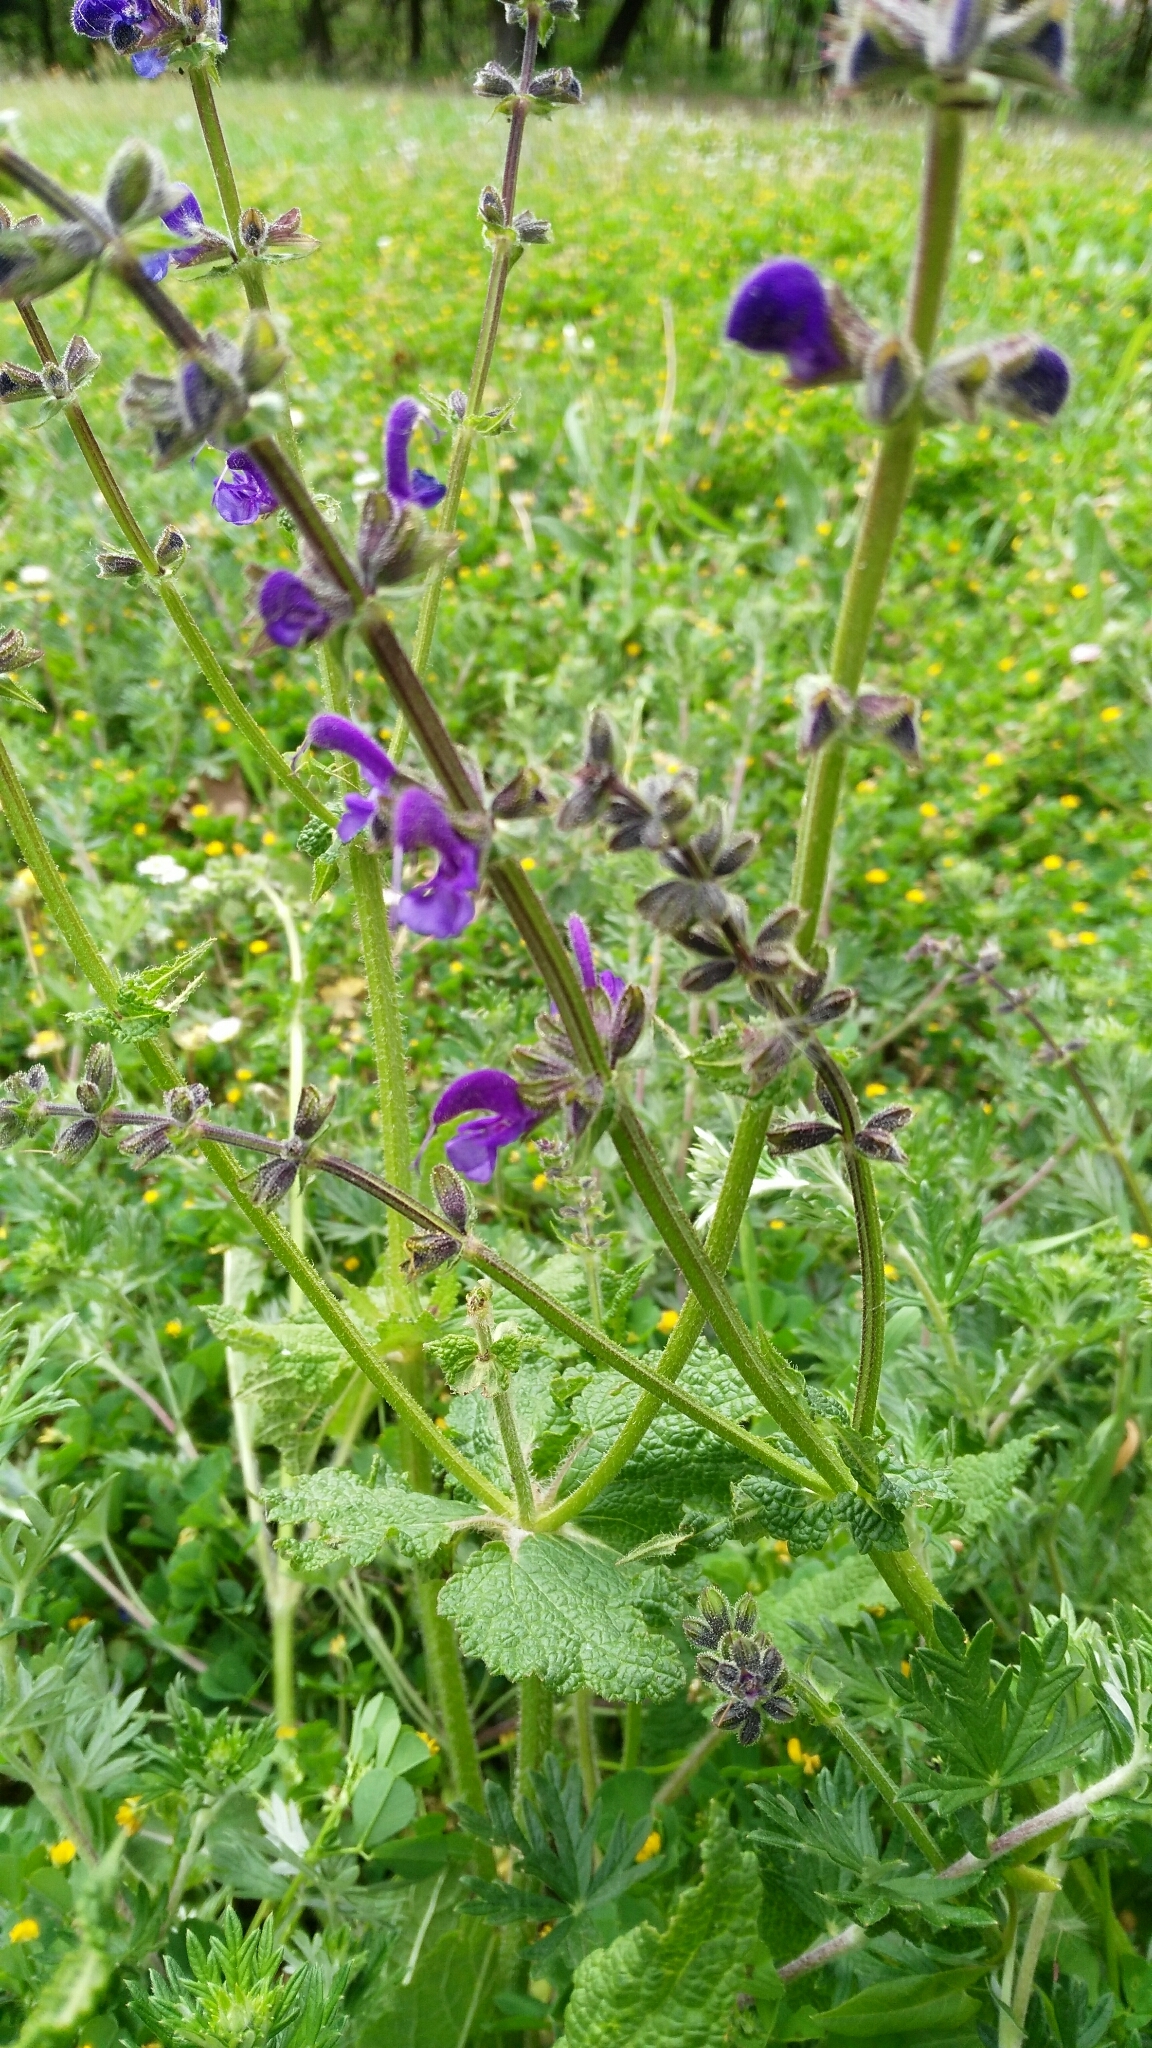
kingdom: Plantae
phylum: Tracheophyta
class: Magnoliopsida
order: Lamiales
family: Lamiaceae
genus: Salvia
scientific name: Salvia pratensis
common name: Meadow sage
